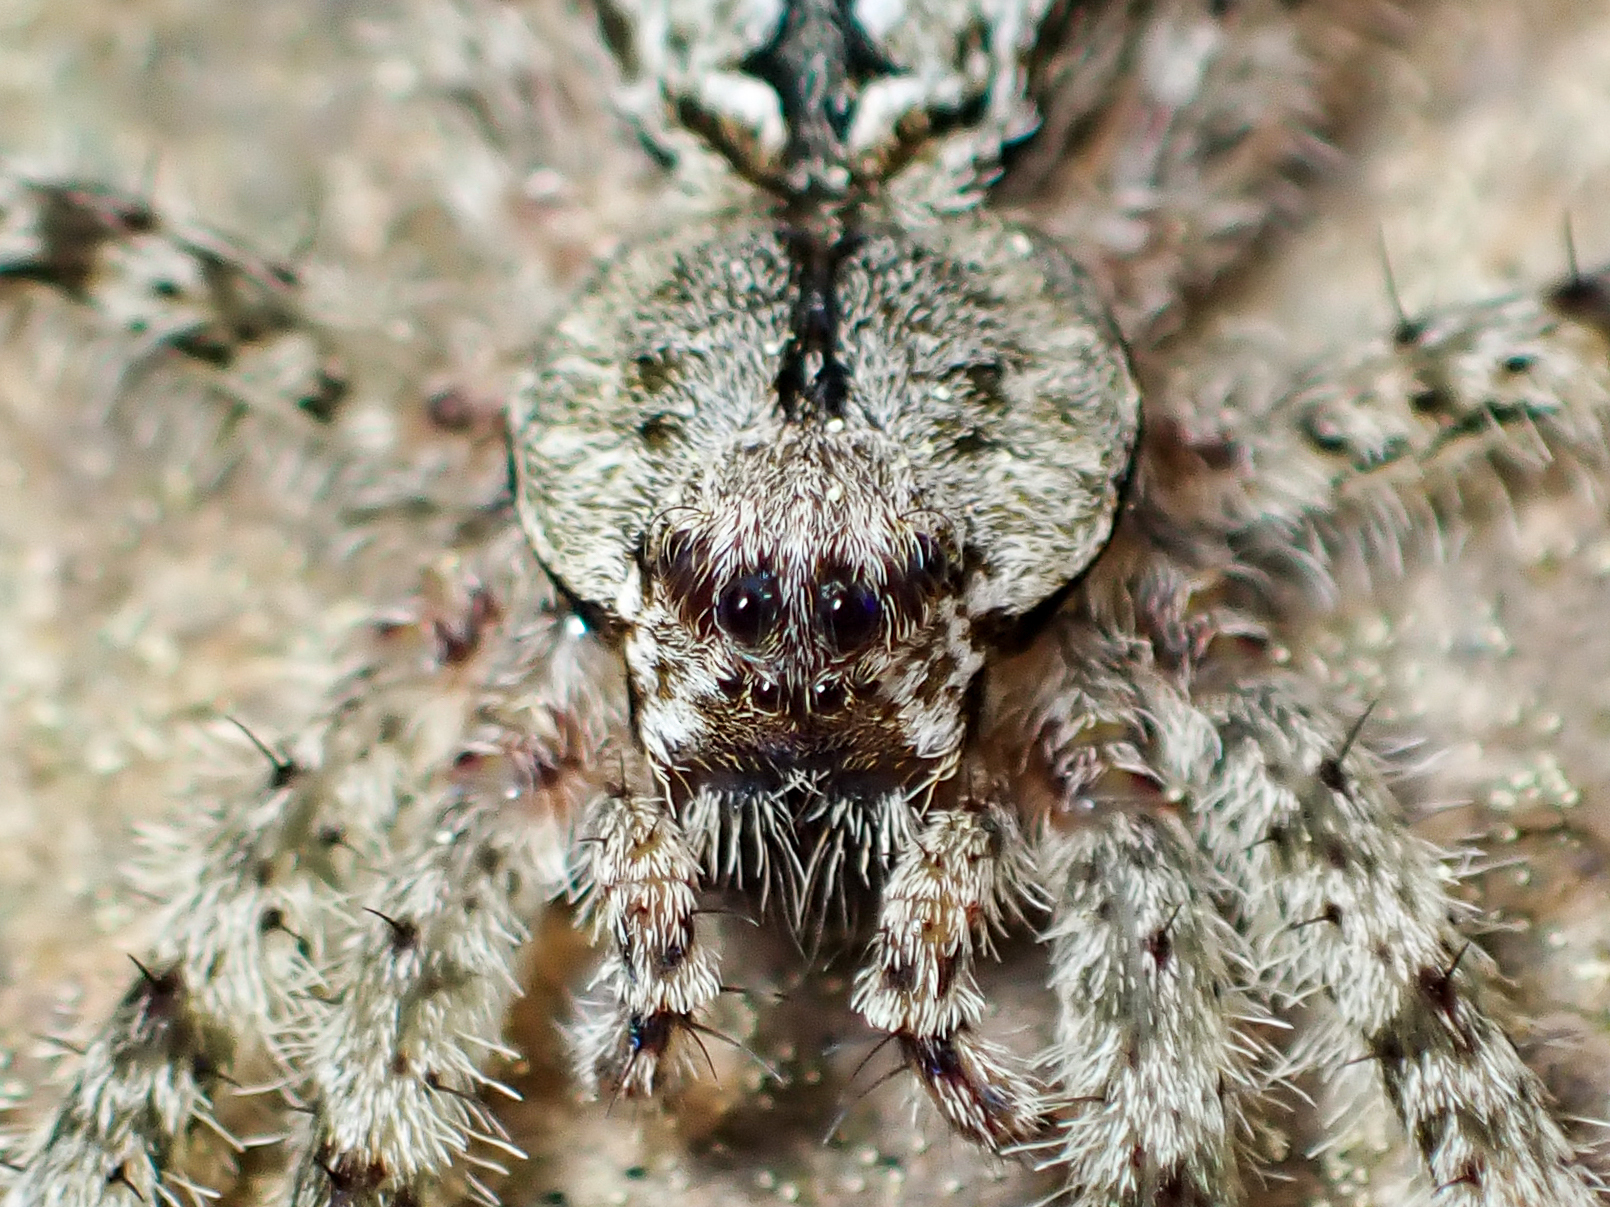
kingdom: Animalia
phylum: Arthropoda
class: Arachnida
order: Araneae
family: Pisauridae
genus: Dolomedes
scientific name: Dolomedes albineus
